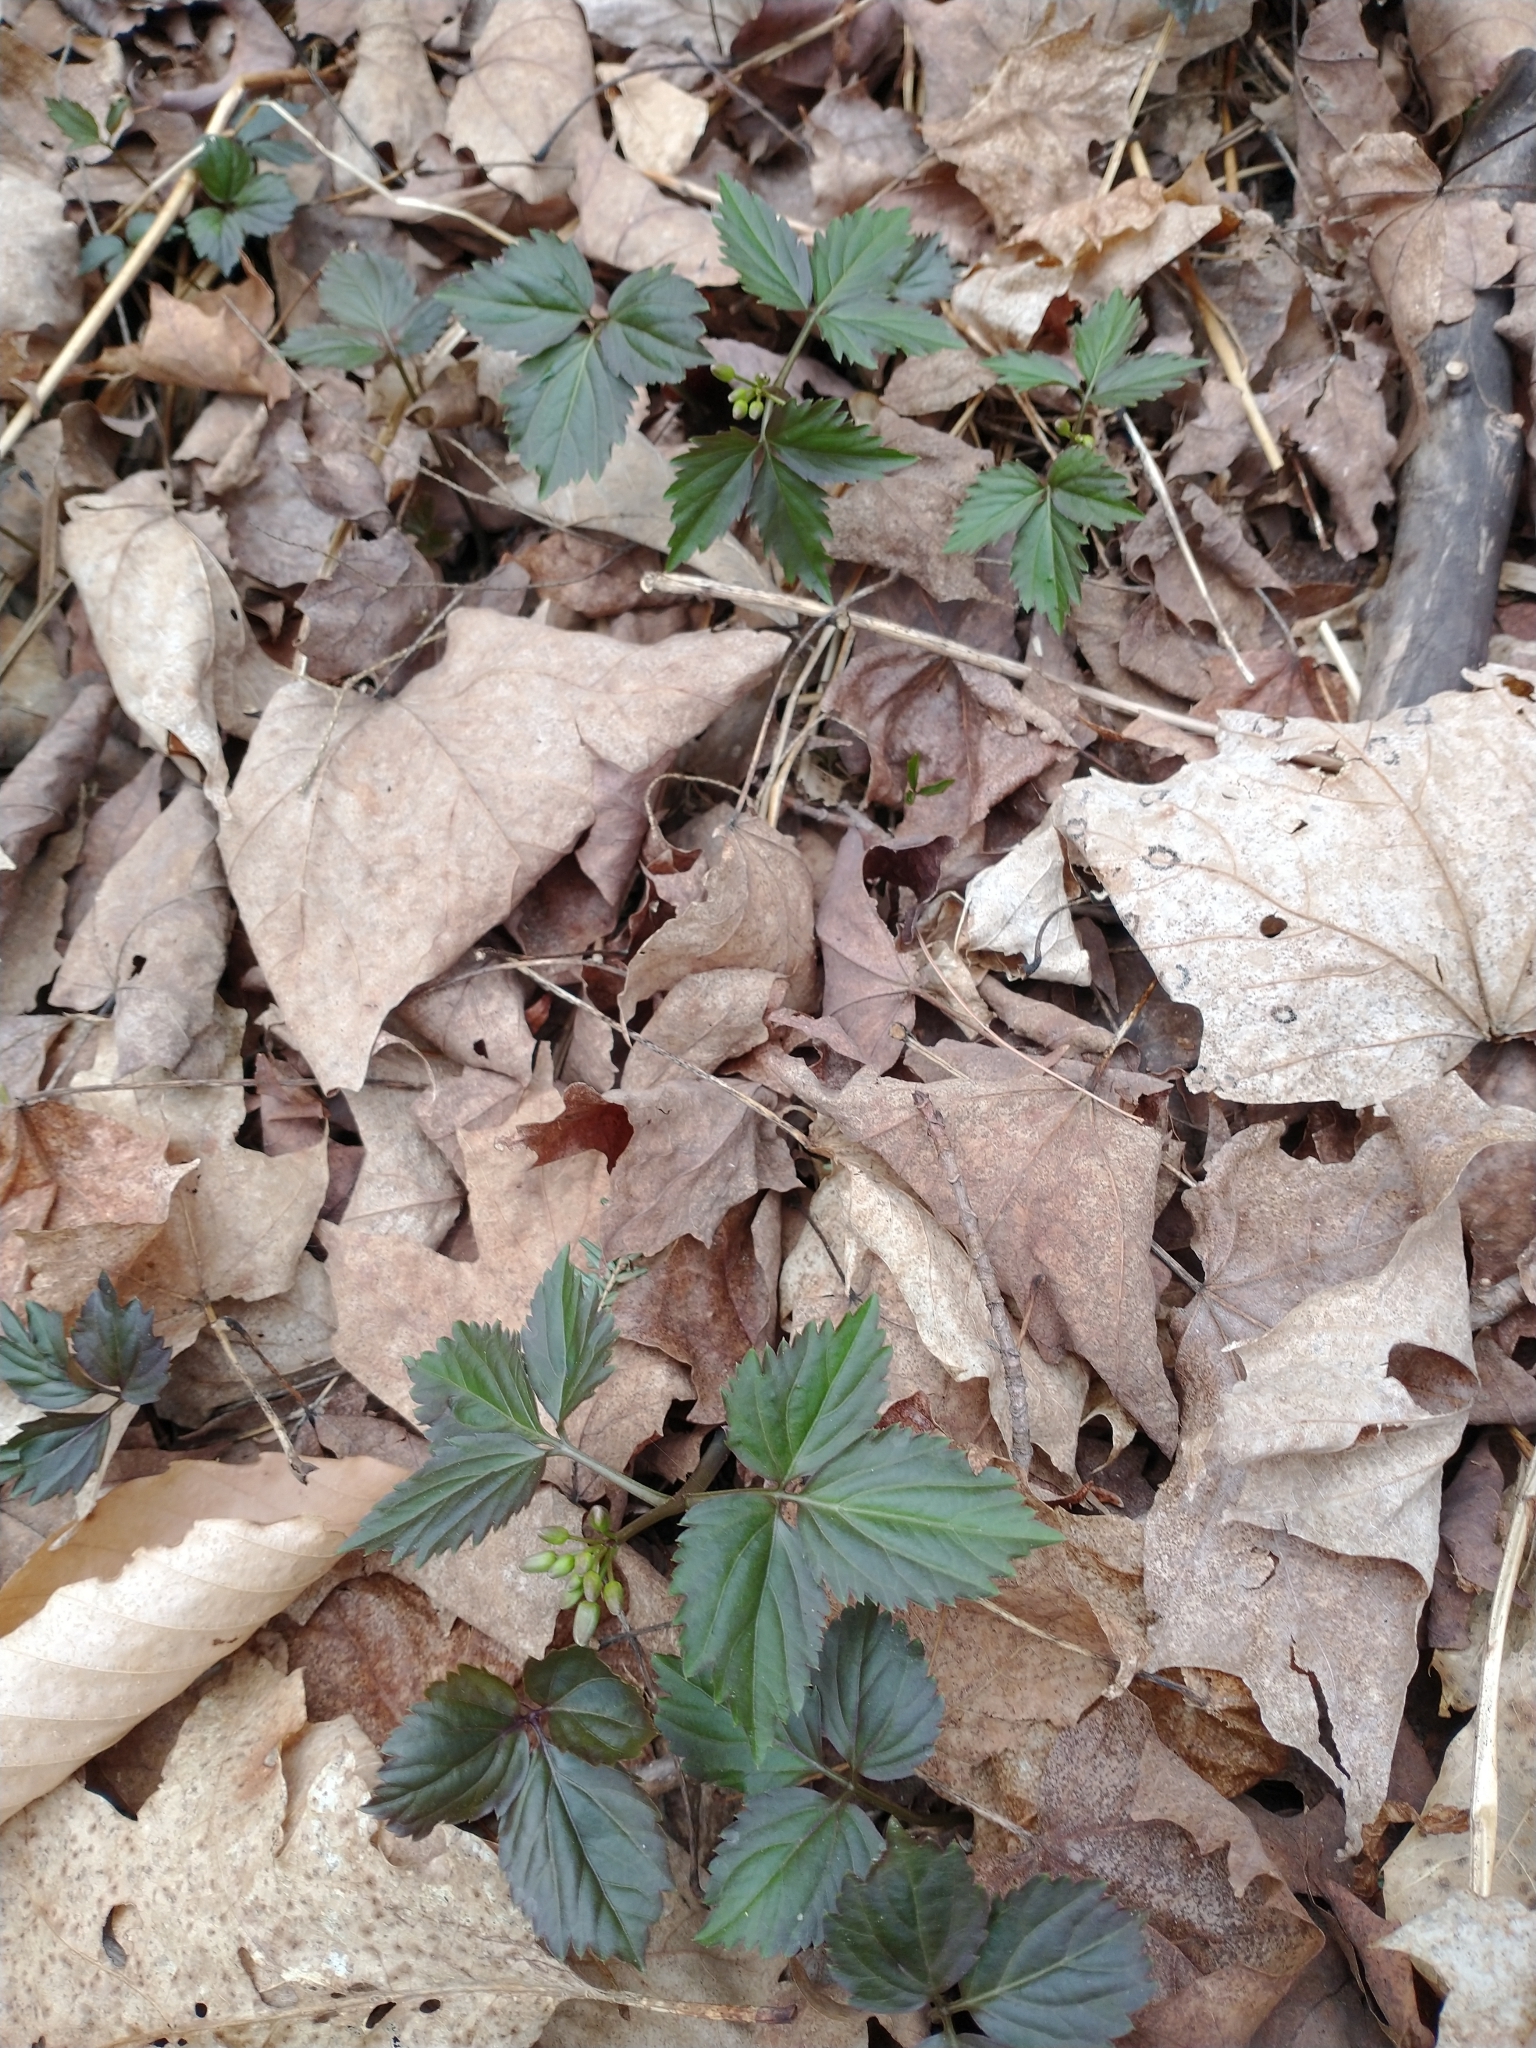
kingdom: Plantae
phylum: Tracheophyta
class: Magnoliopsida
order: Brassicales
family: Brassicaceae
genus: Cardamine
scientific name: Cardamine diphylla
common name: Broad-leaved toothwort
